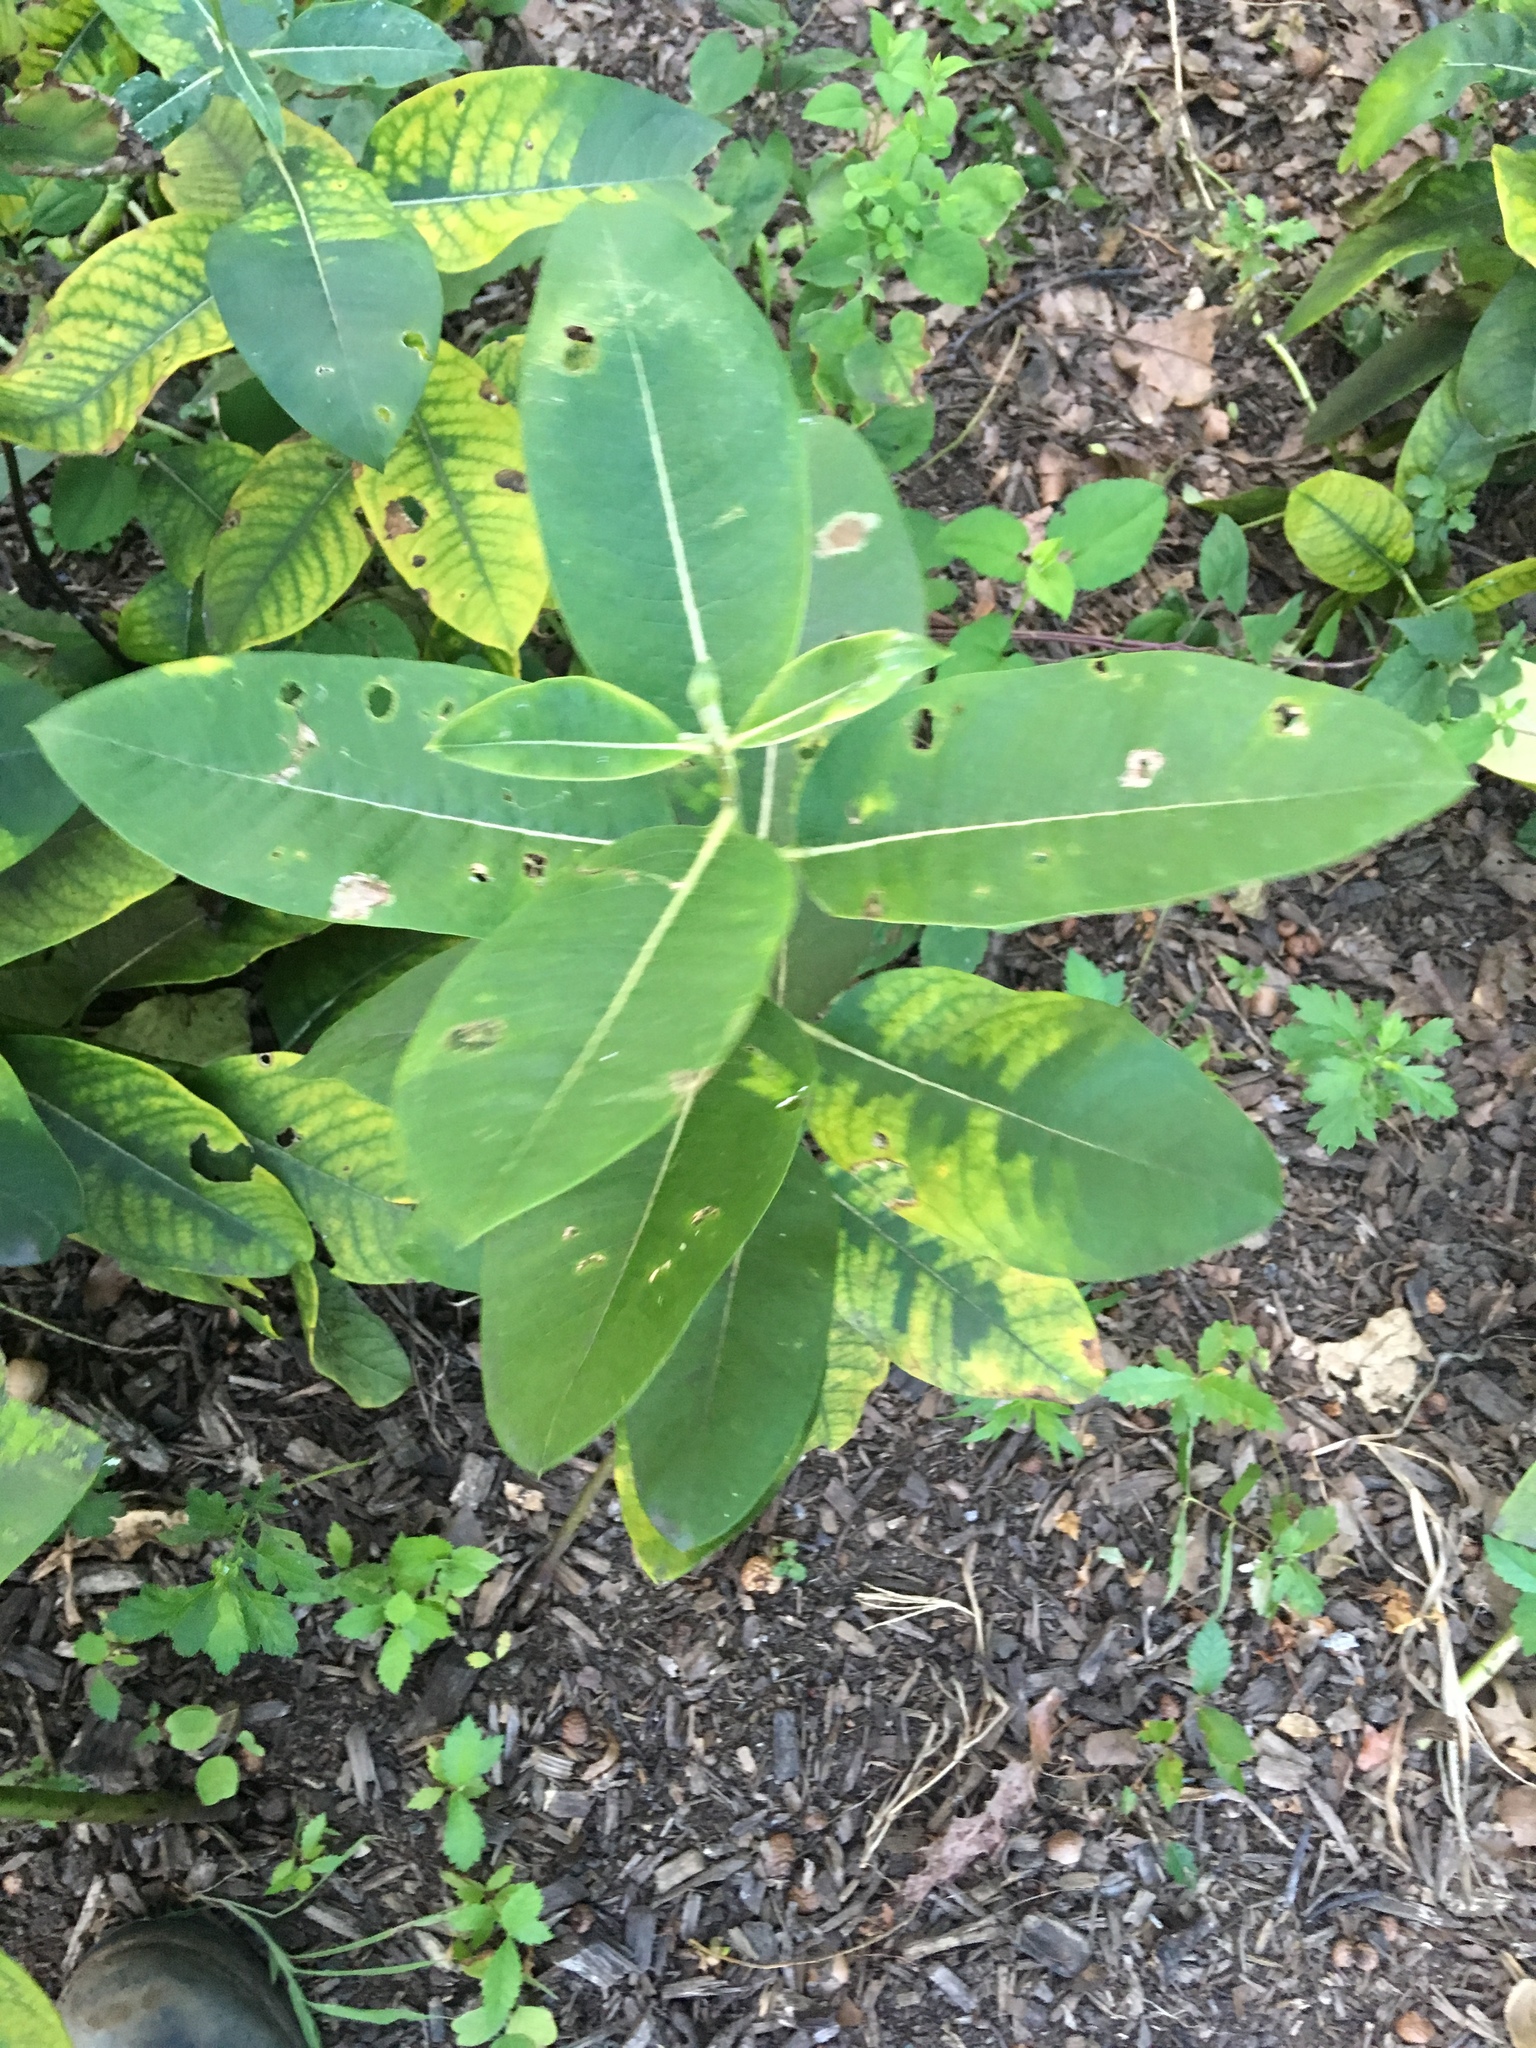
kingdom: Plantae
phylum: Tracheophyta
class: Magnoliopsida
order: Gentianales
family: Apocynaceae
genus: Asclepias
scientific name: Asclepias syriaca
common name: Common milkweed
